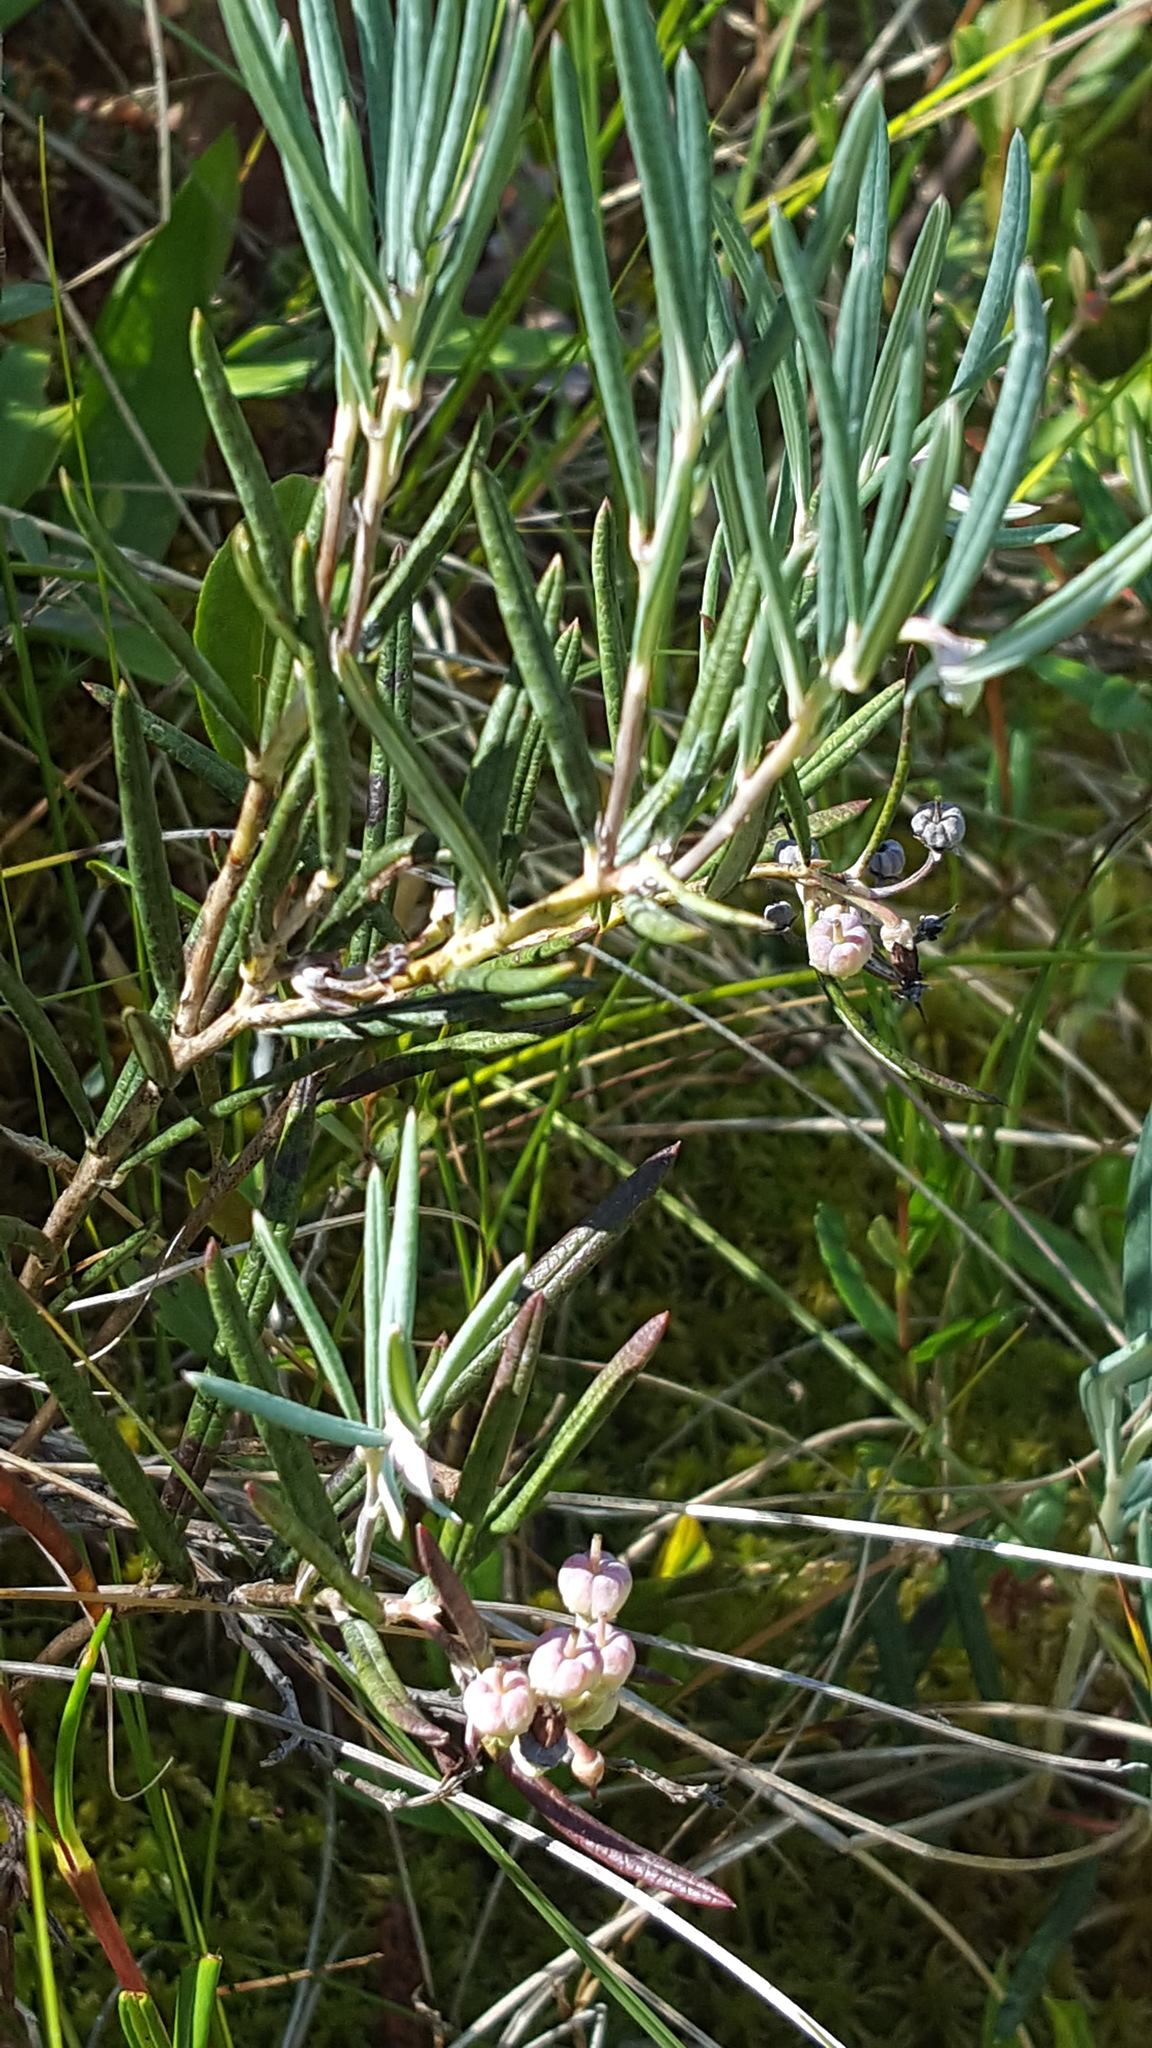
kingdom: Plantae
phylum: Tracheophyta
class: Magnoliopsida
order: Ericales
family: Ericaceae
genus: Andromeda
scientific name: Andromeda polifolia
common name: Bog-rosemary
